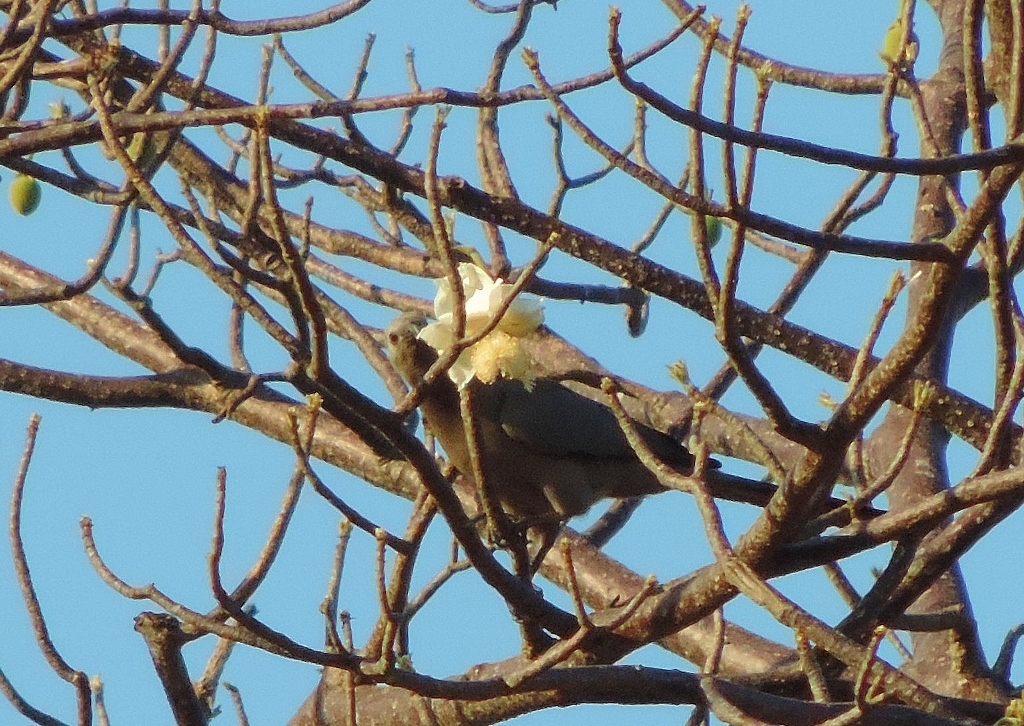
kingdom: Plantae
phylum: Tracheophyta
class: Magnoliopsida
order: Malvales
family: Malvaceae
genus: Adansonia
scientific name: Adansonia digitata
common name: Dead-rat-tree
